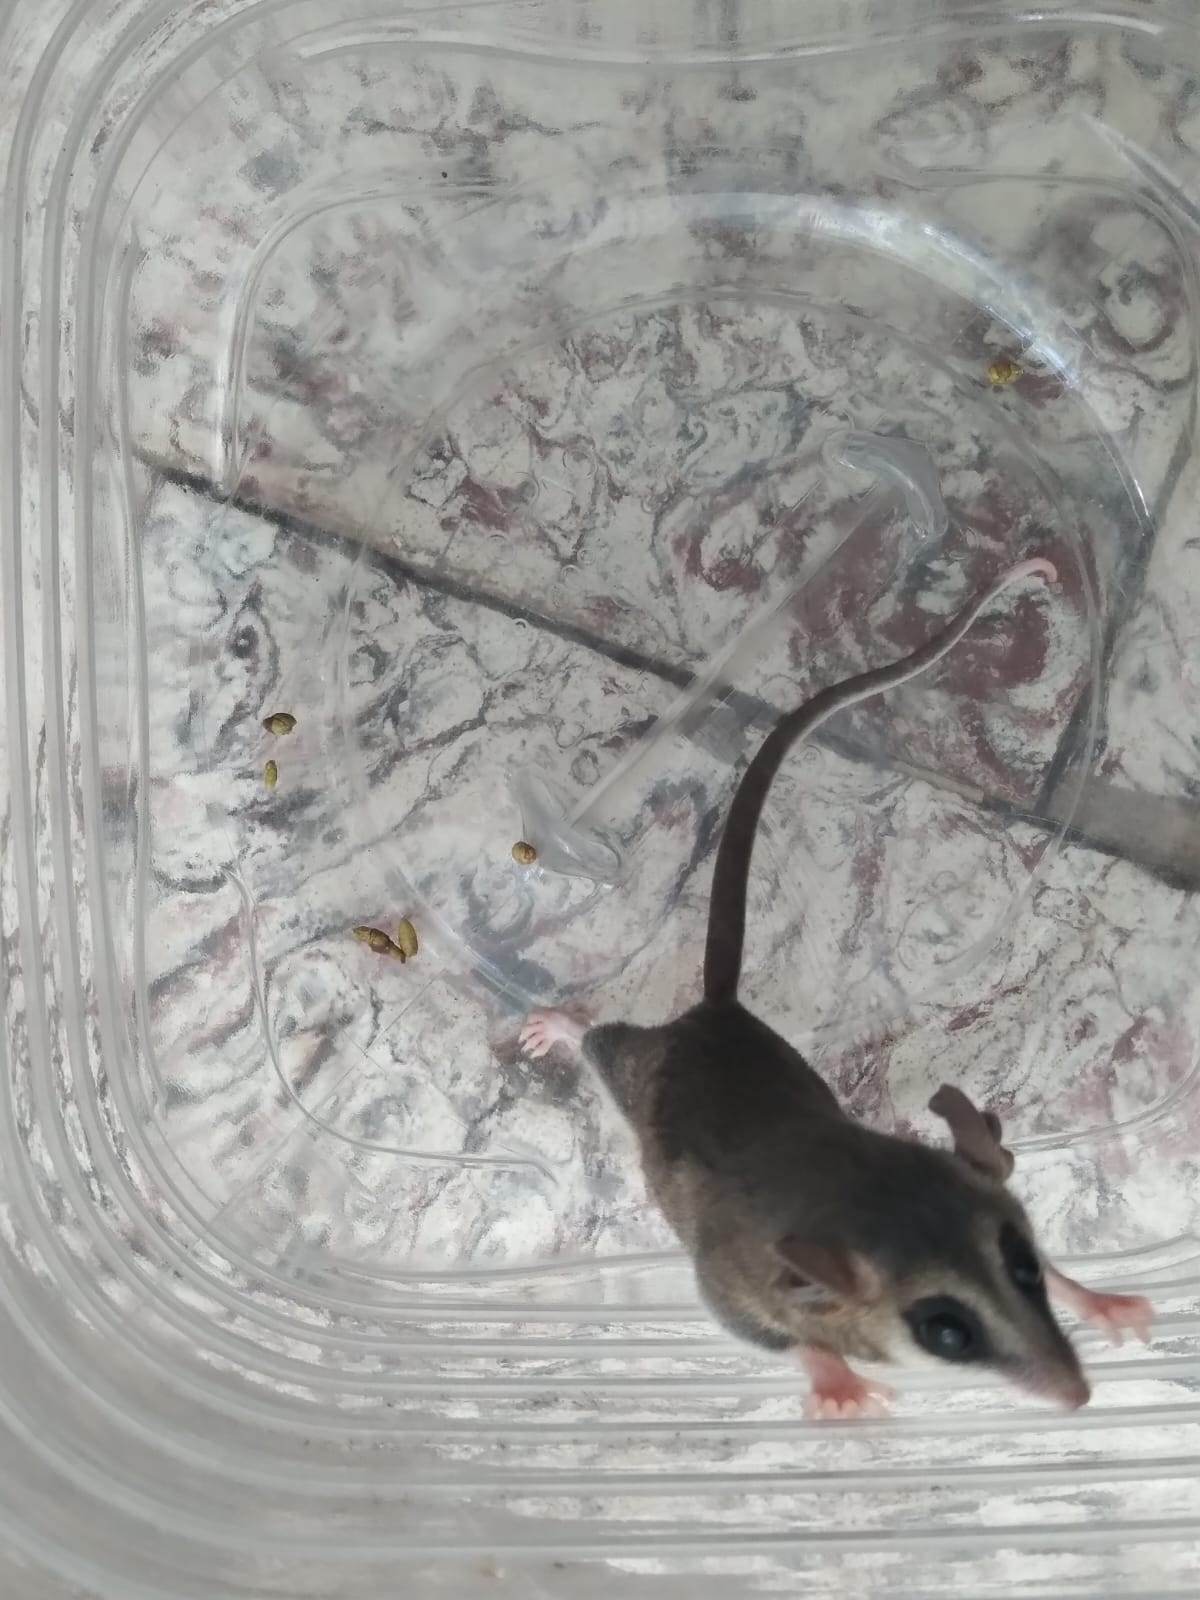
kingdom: Animalia
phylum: Chordata
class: Mammalia
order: Didelphimorphia
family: Didelphidae
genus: Thylamys
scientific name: Thylamys pusillus
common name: Common fat-tailed mouse opossum
